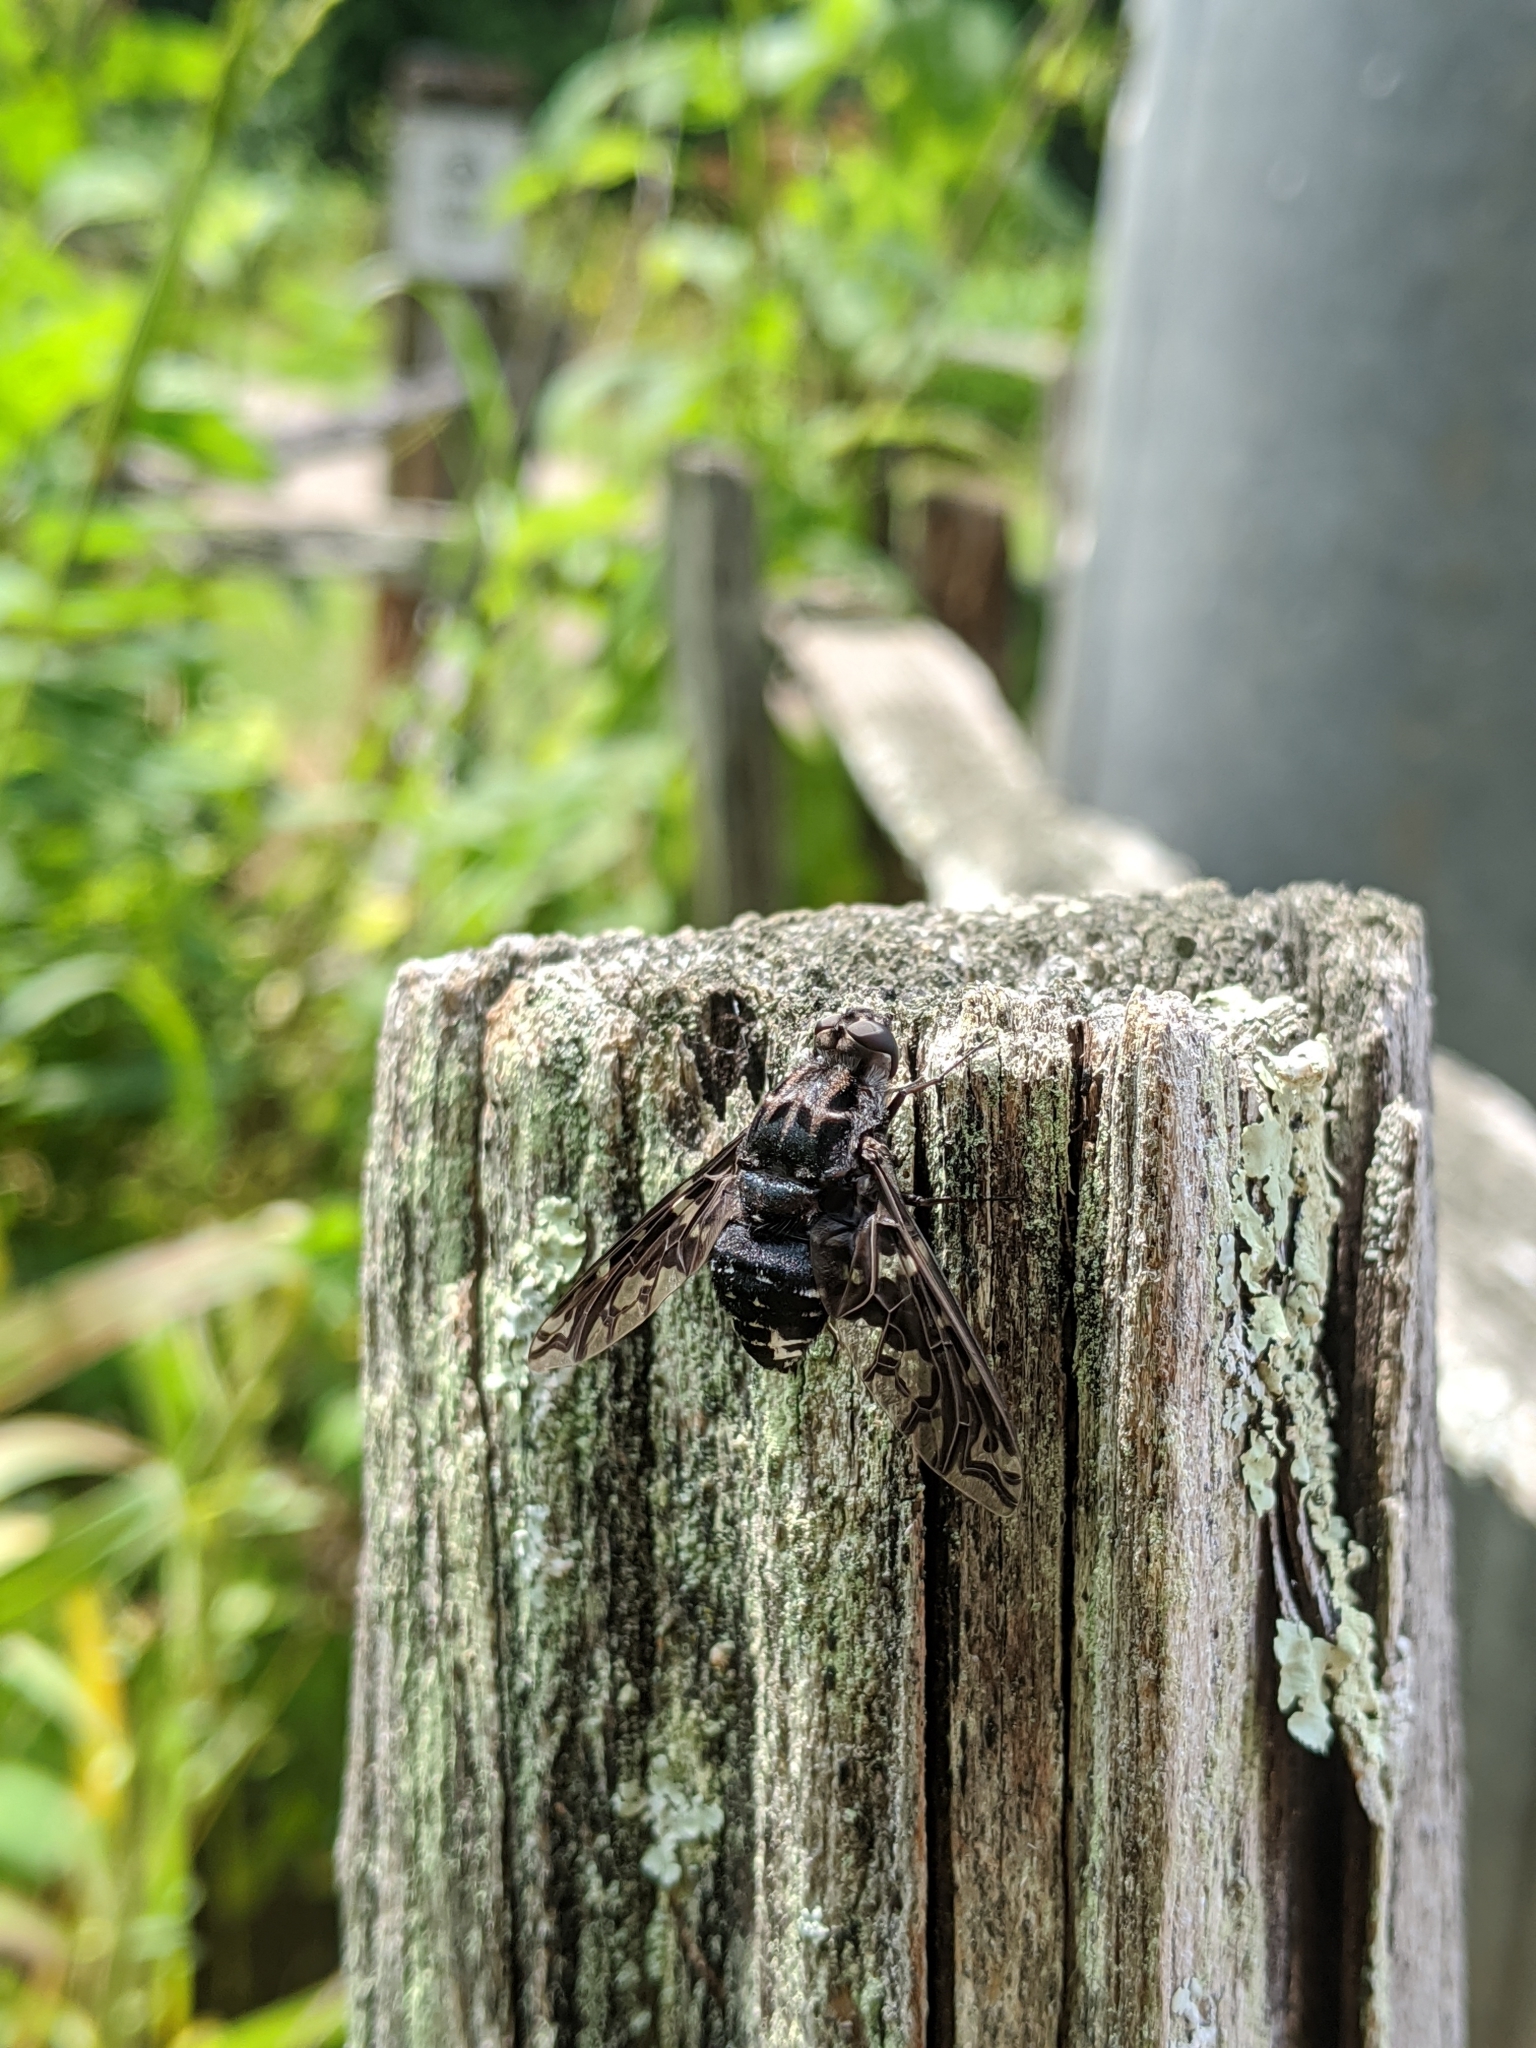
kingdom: Animalia
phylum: Arthropoda
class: Insecta
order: Diptera
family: Bombyliidae
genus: Xenox
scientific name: Xenox tigrinus
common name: Tiger bee fly
